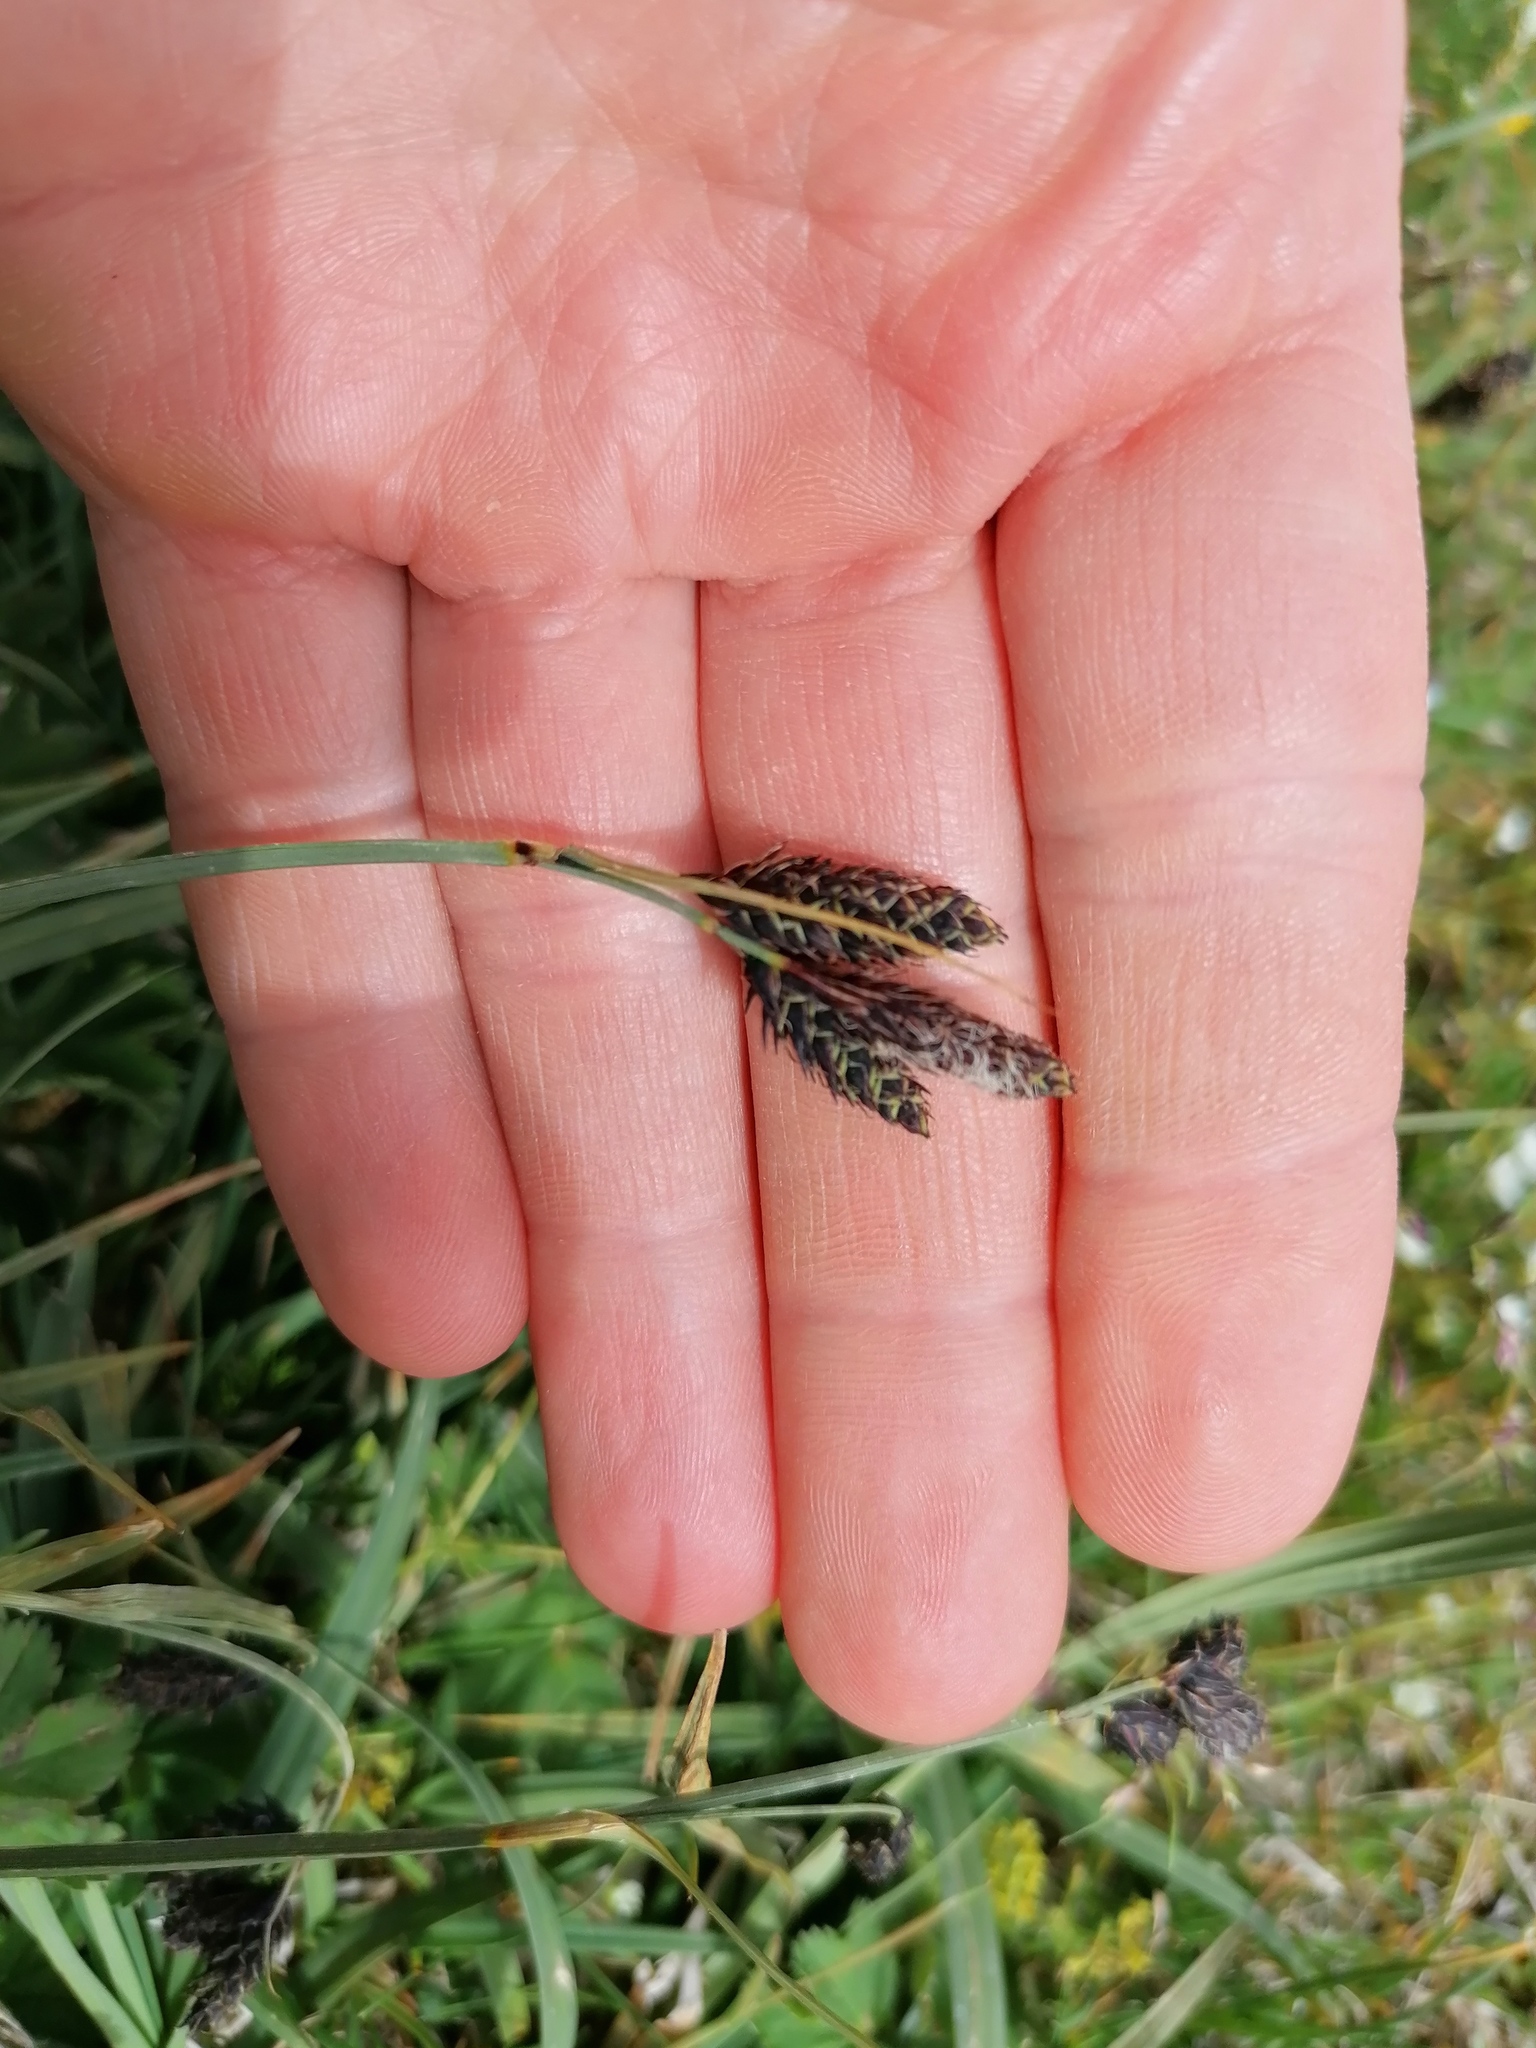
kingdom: Plantae
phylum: Tracheophyta
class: Liliopsida
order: Poales
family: Cyperaceae
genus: Carex
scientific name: Carex atrata
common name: Black alpine sedge
